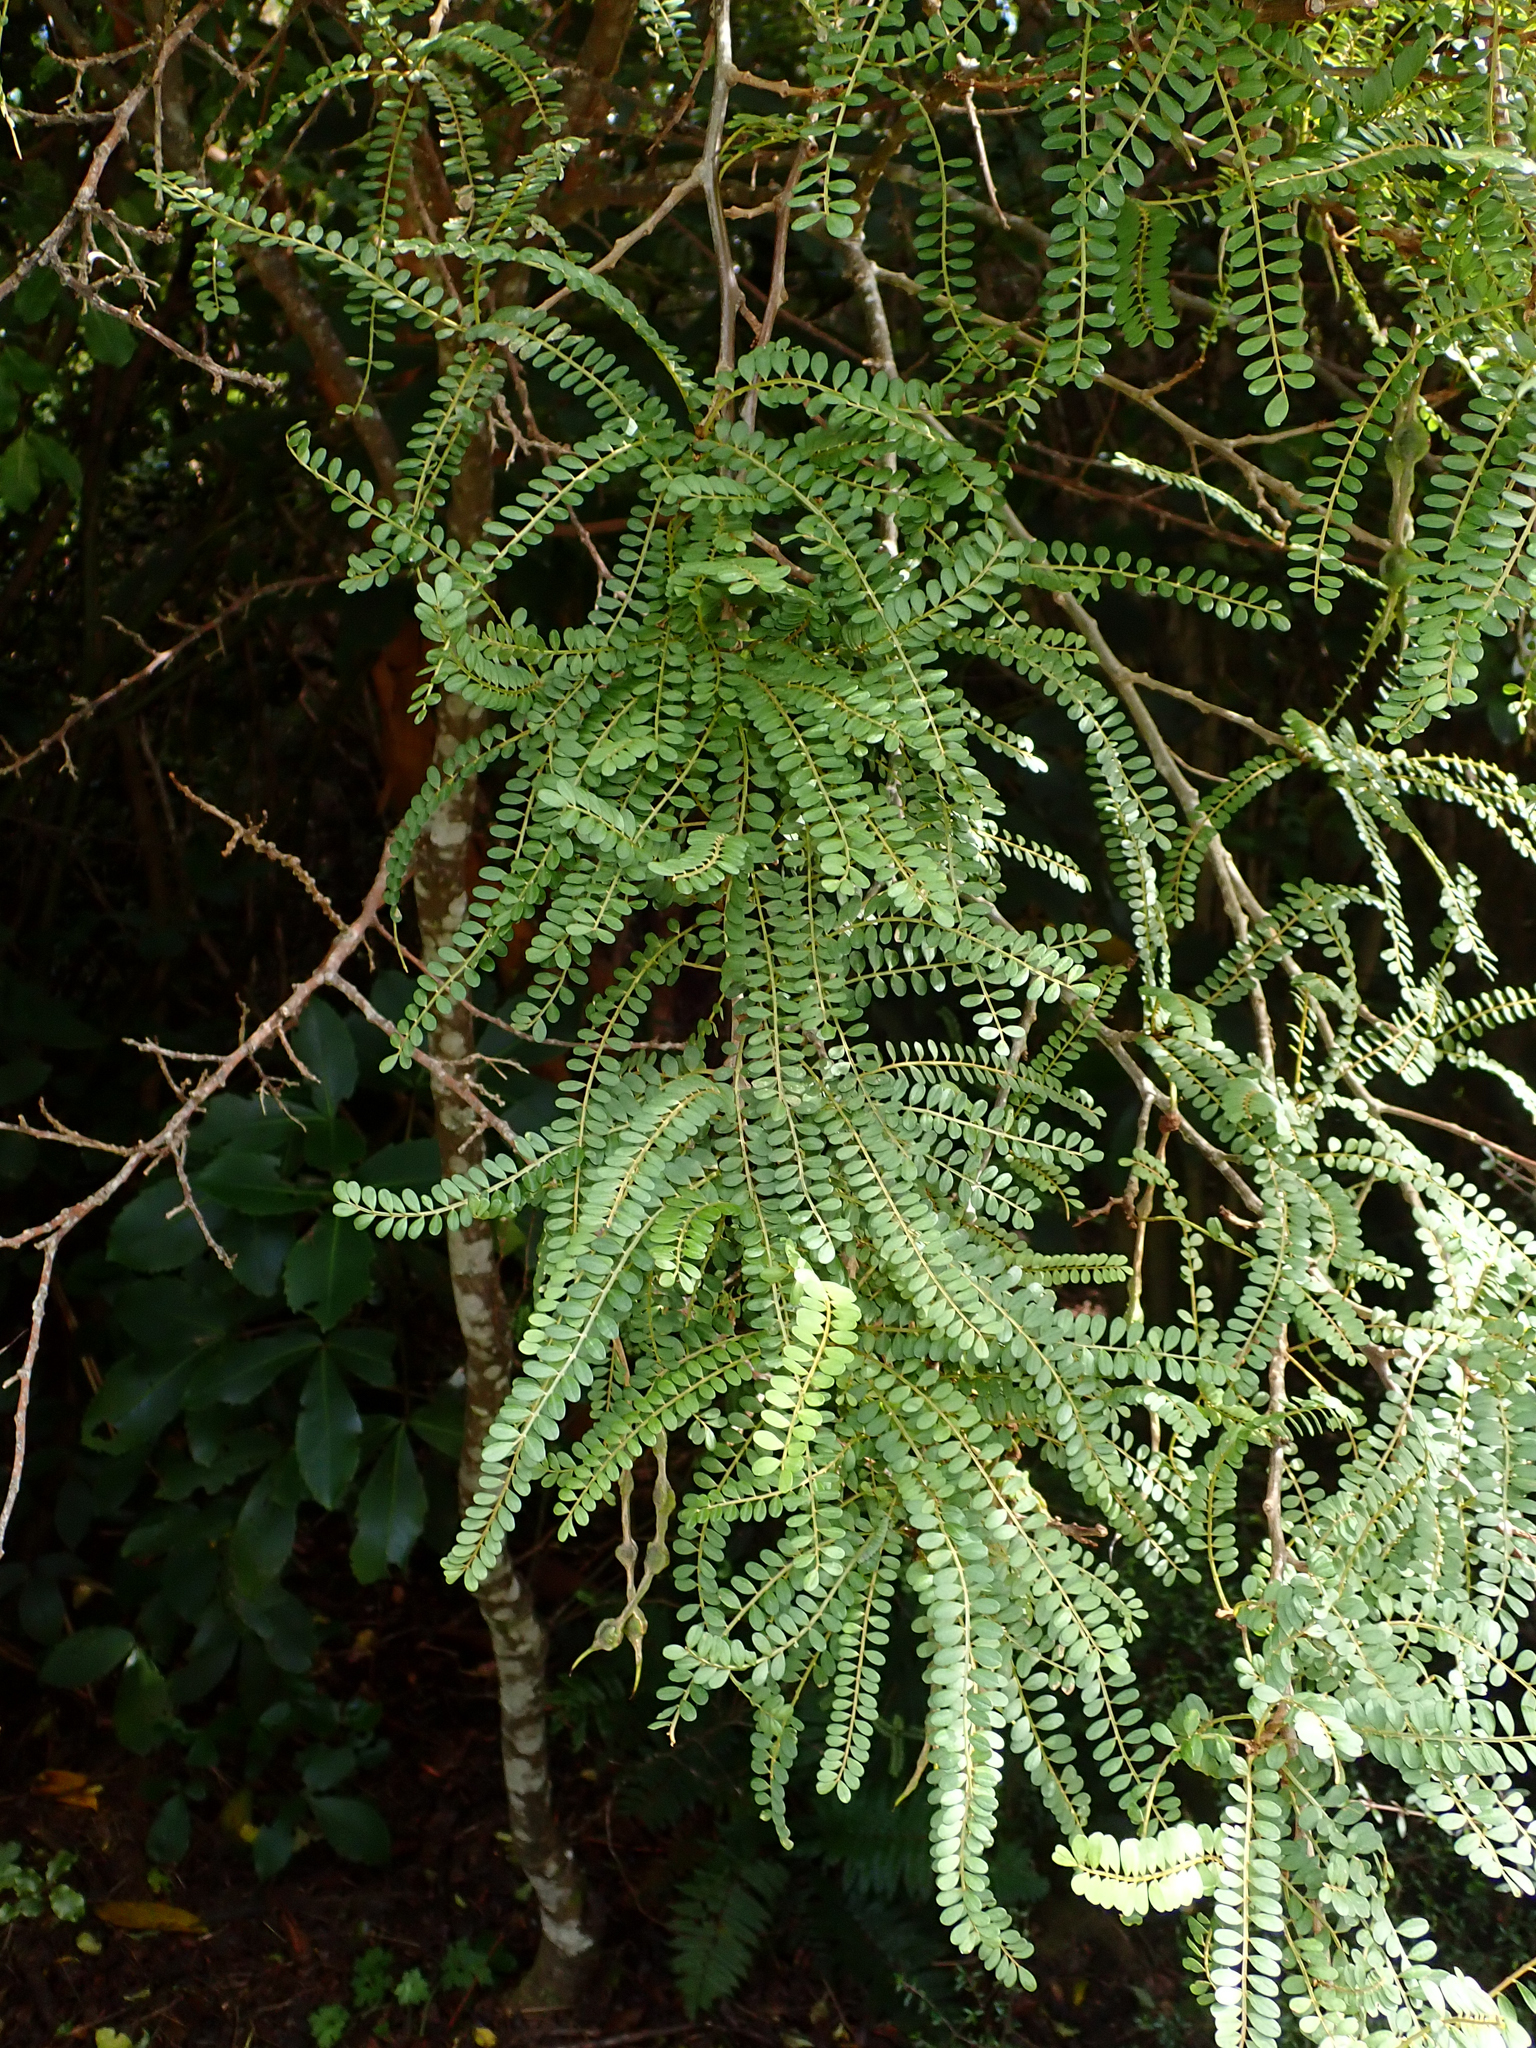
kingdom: Plantae
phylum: Tracheophyta
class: Magnoliopsida
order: Fabales
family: Fabaceae
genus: Sophora
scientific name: Sophora microphylla
